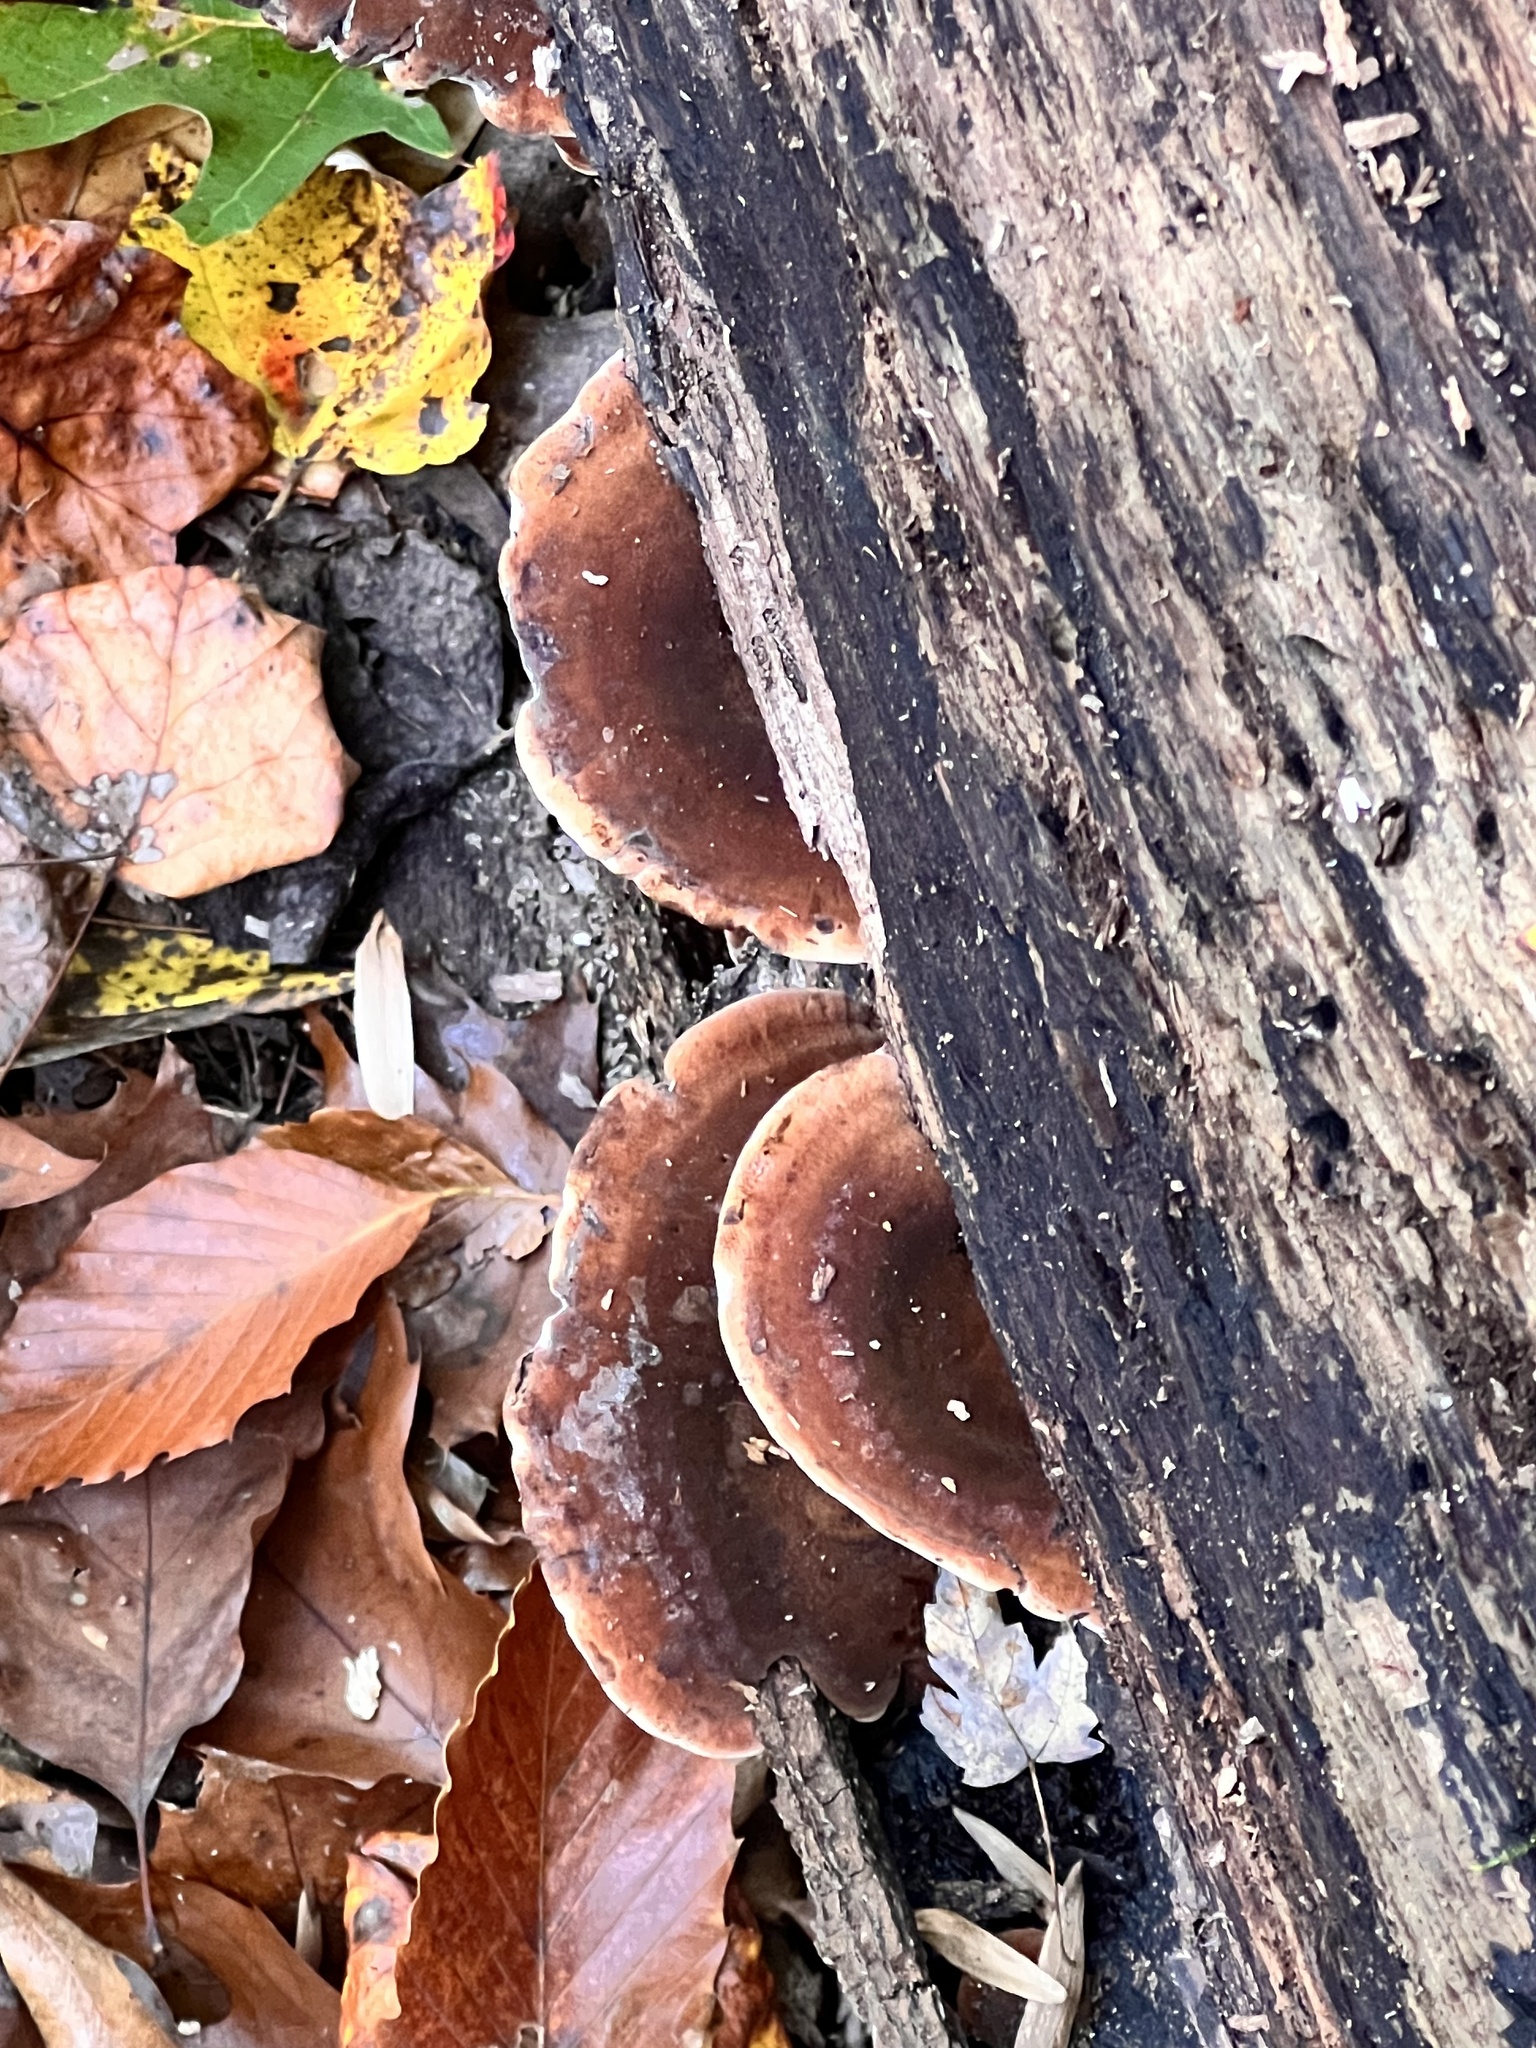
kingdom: Fungi
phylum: Basidiomycota
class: Agaricomycetes
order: Polyporales
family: Ischnodermataceae
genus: Ischnoderma
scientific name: Ischnoderma resinosum
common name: Resinous polypore
